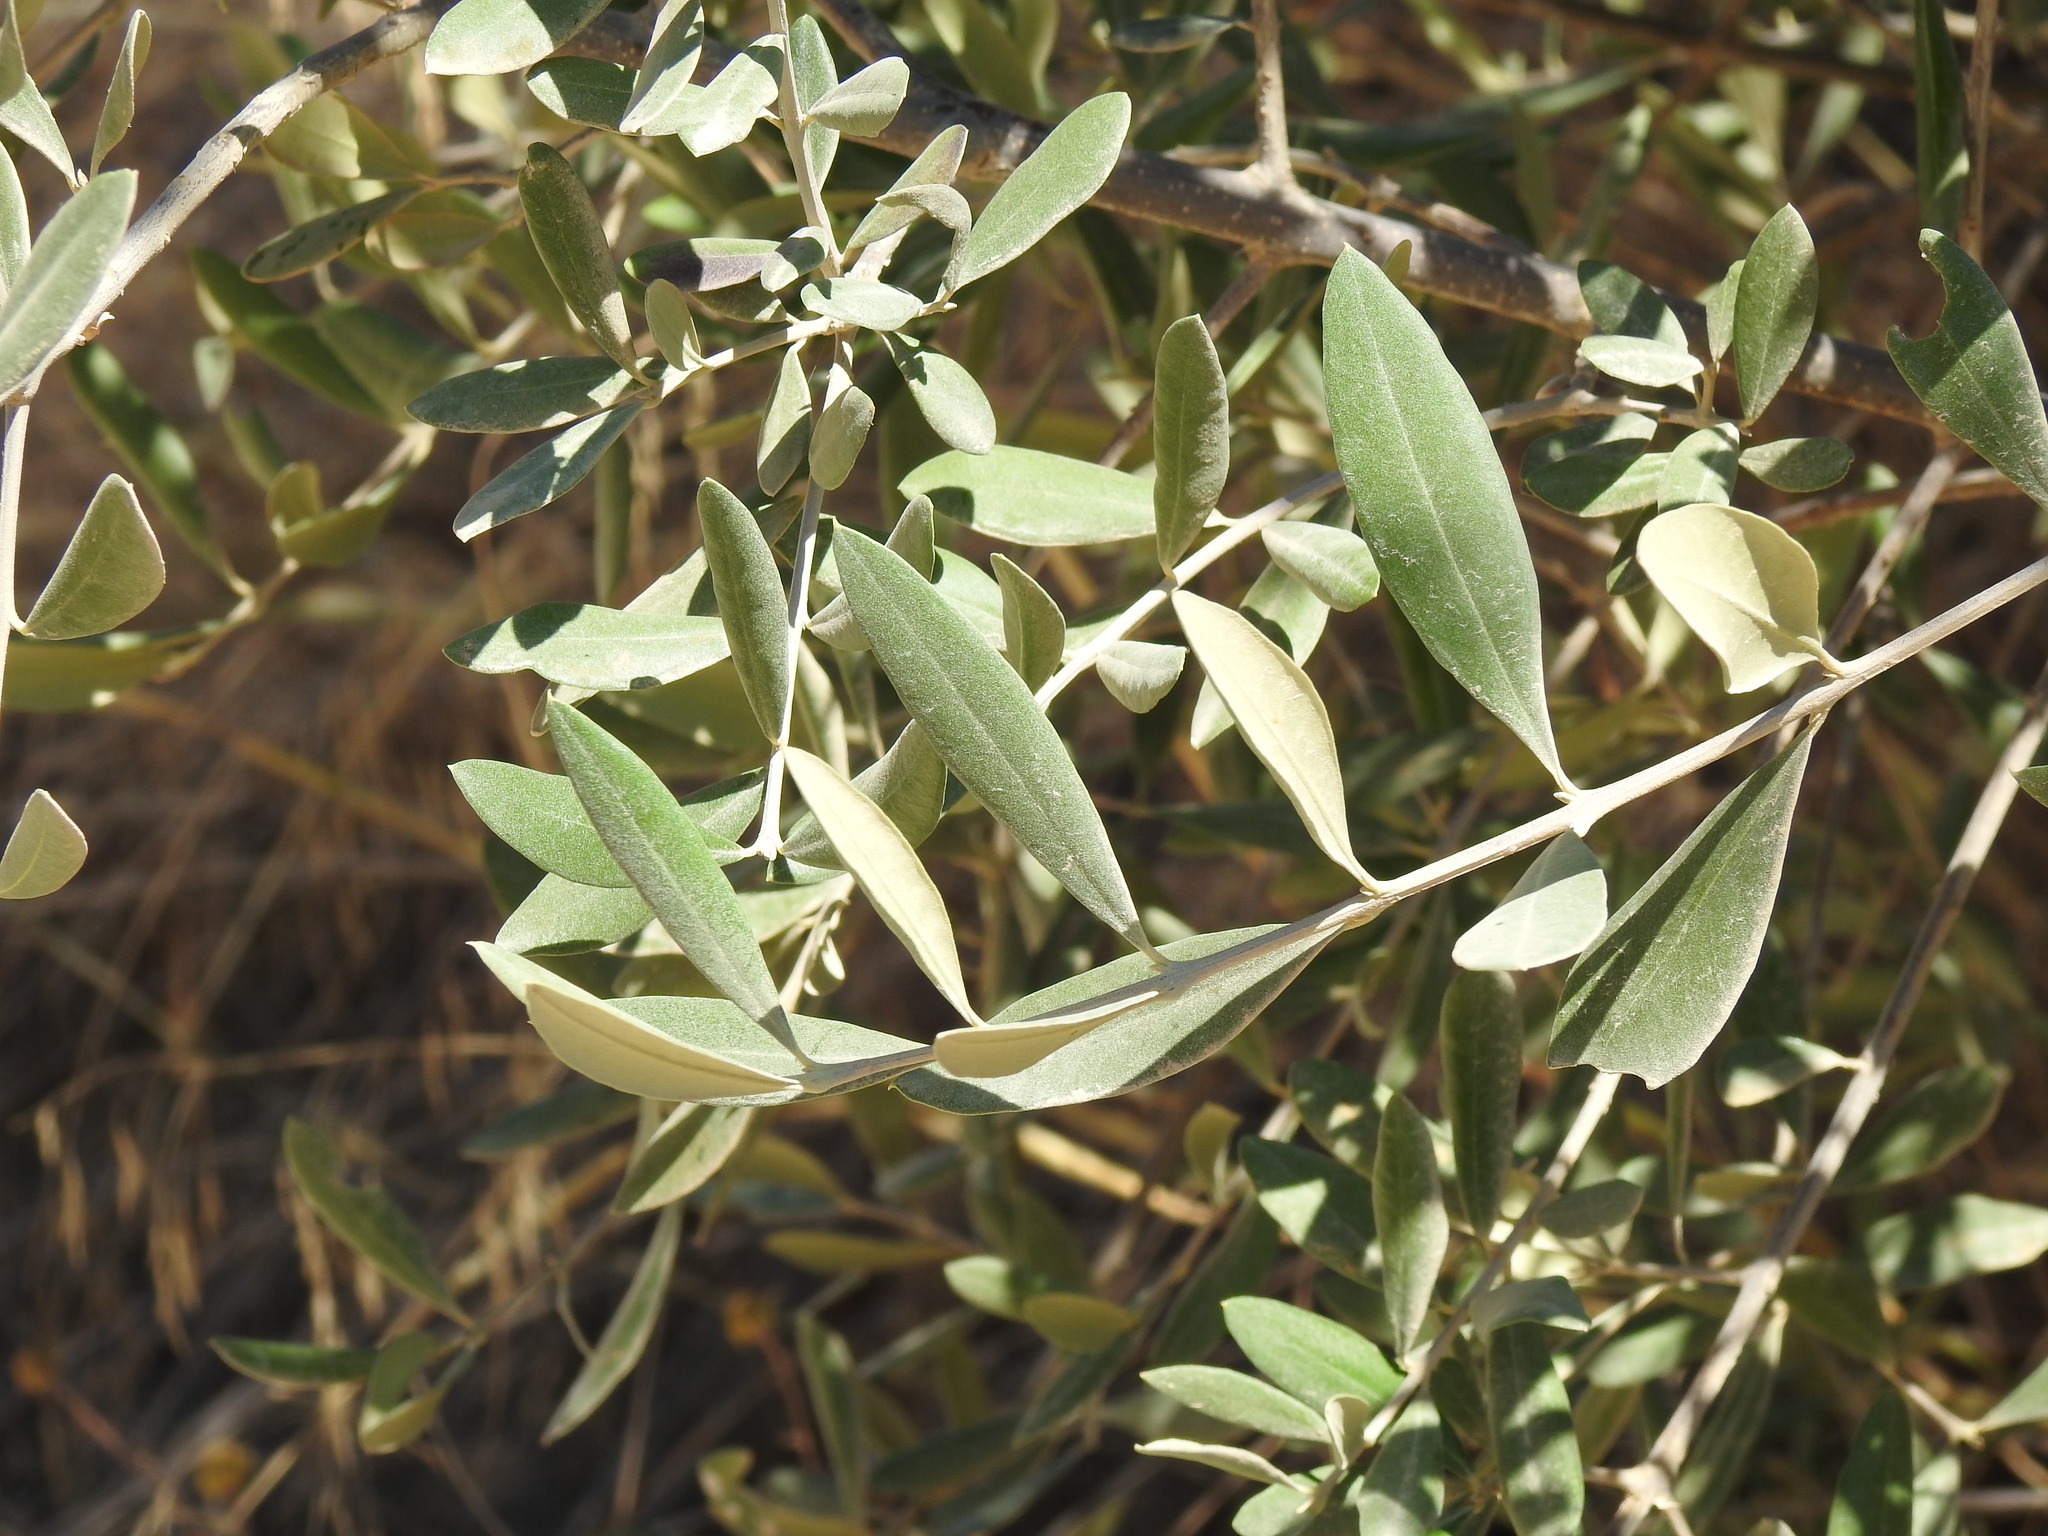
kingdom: Plantae
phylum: Tracheophyta
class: Magnoliopsida
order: Lamiales
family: Oleaceae
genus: Olea
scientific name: Olea europaea
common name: Olive
